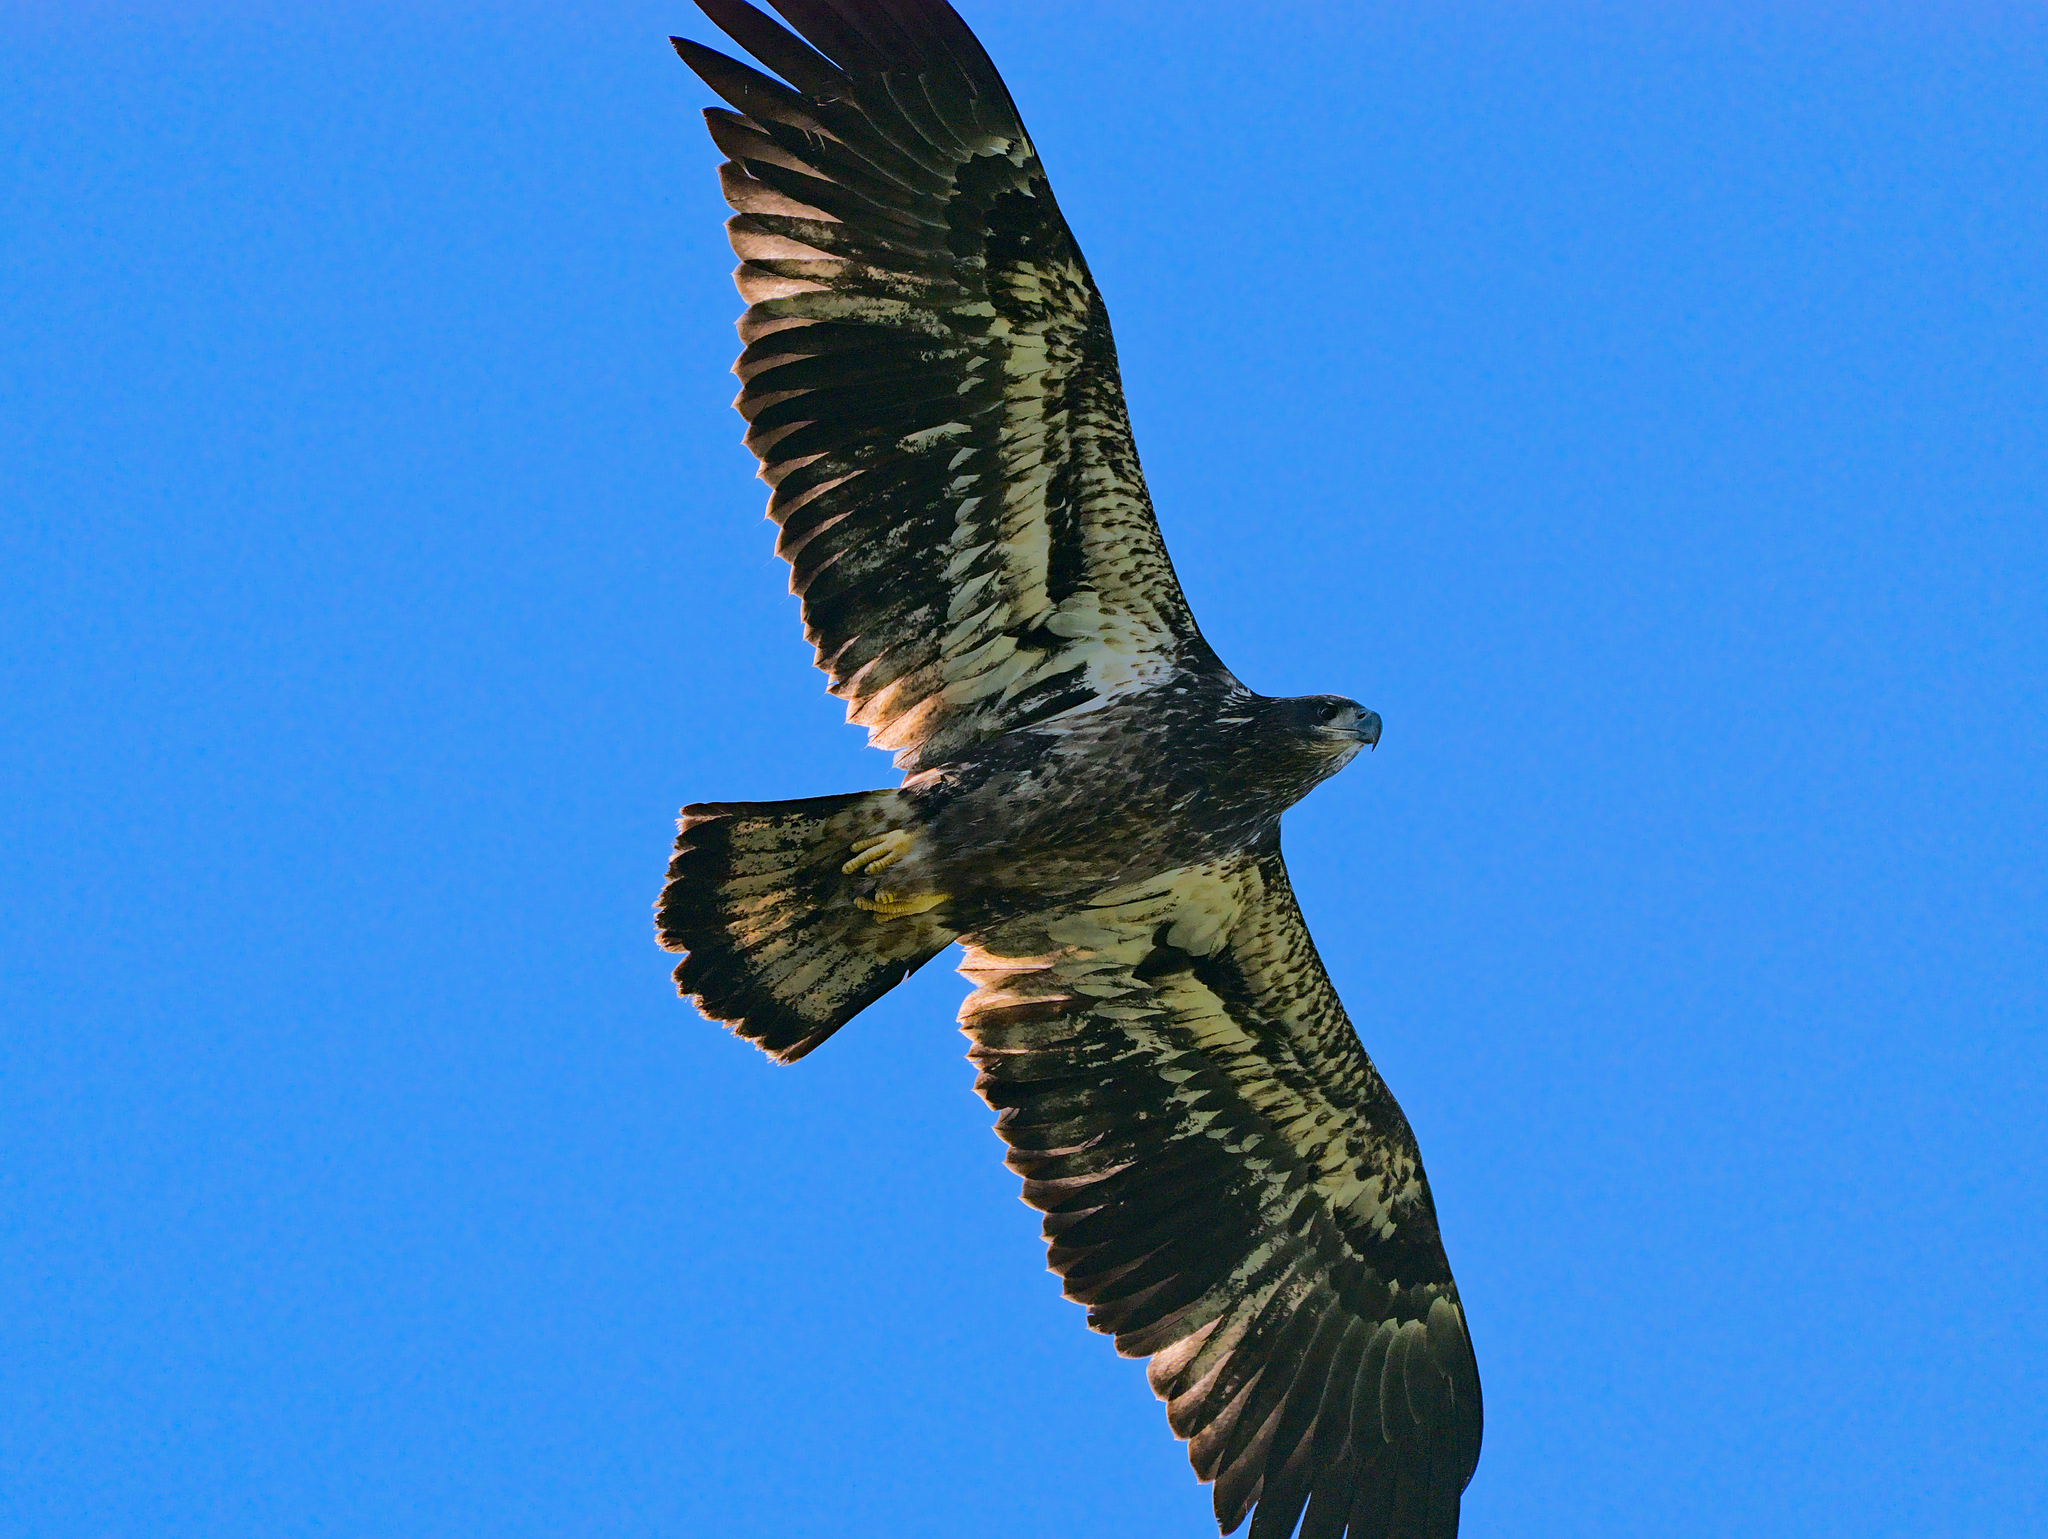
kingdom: Animalia
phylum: Chordata
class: Aves
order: Accipitriformes
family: Accipitridae
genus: Haliaeetus
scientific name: Haliaeetus leucocephalus
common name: Bald eagle
